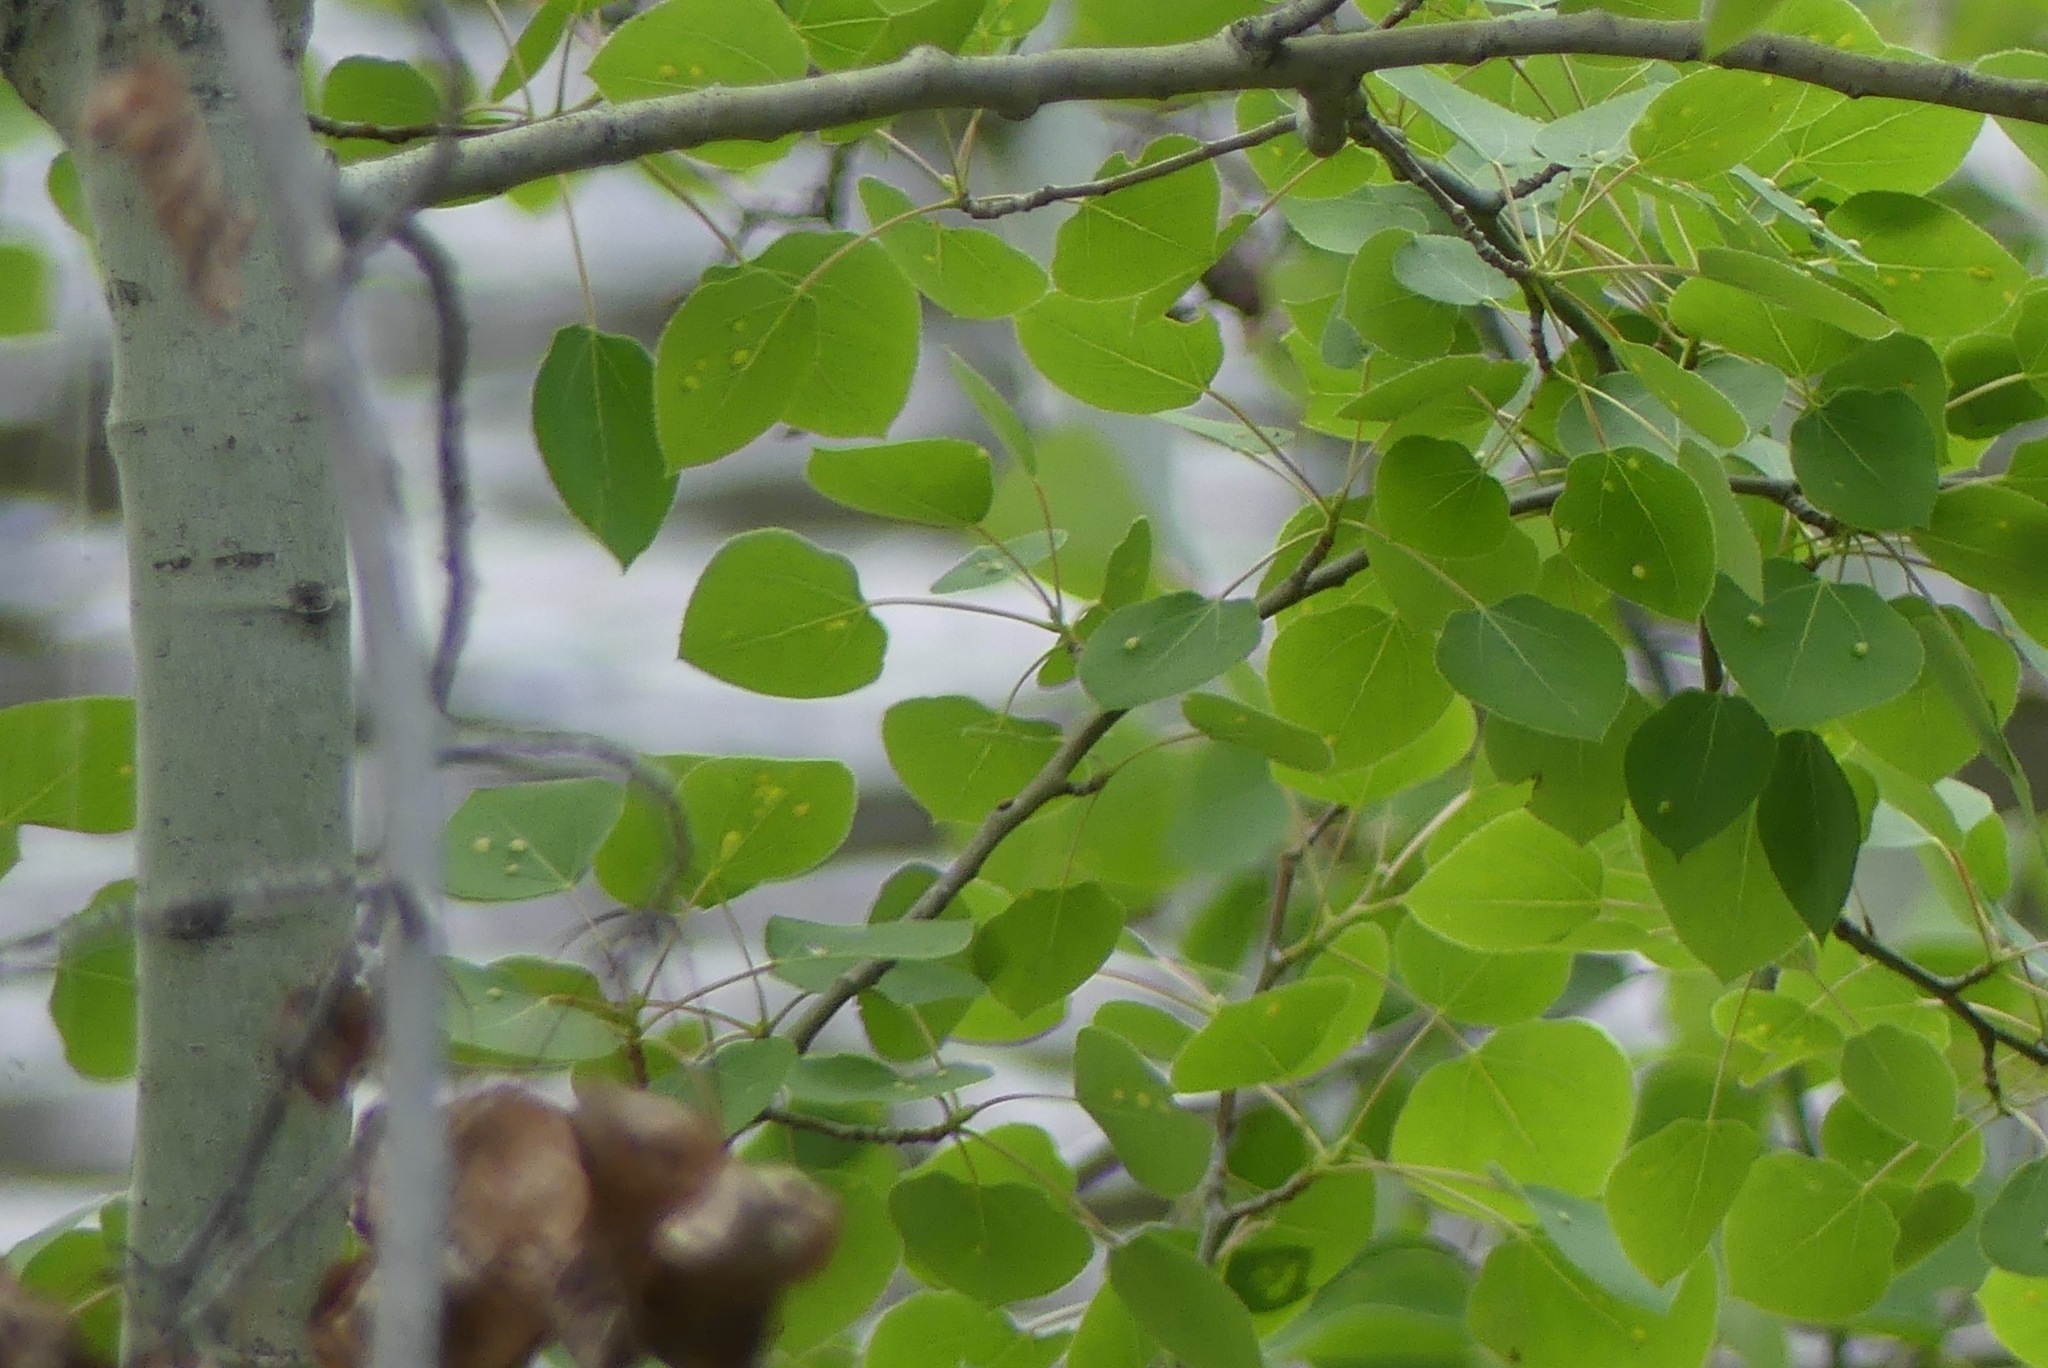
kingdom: Plantae
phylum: Tracheophyta
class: Magnoliopsida
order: Malpighiales
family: Salicaceae
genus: Populus
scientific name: Populus tremuloides
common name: Quaking aspen
